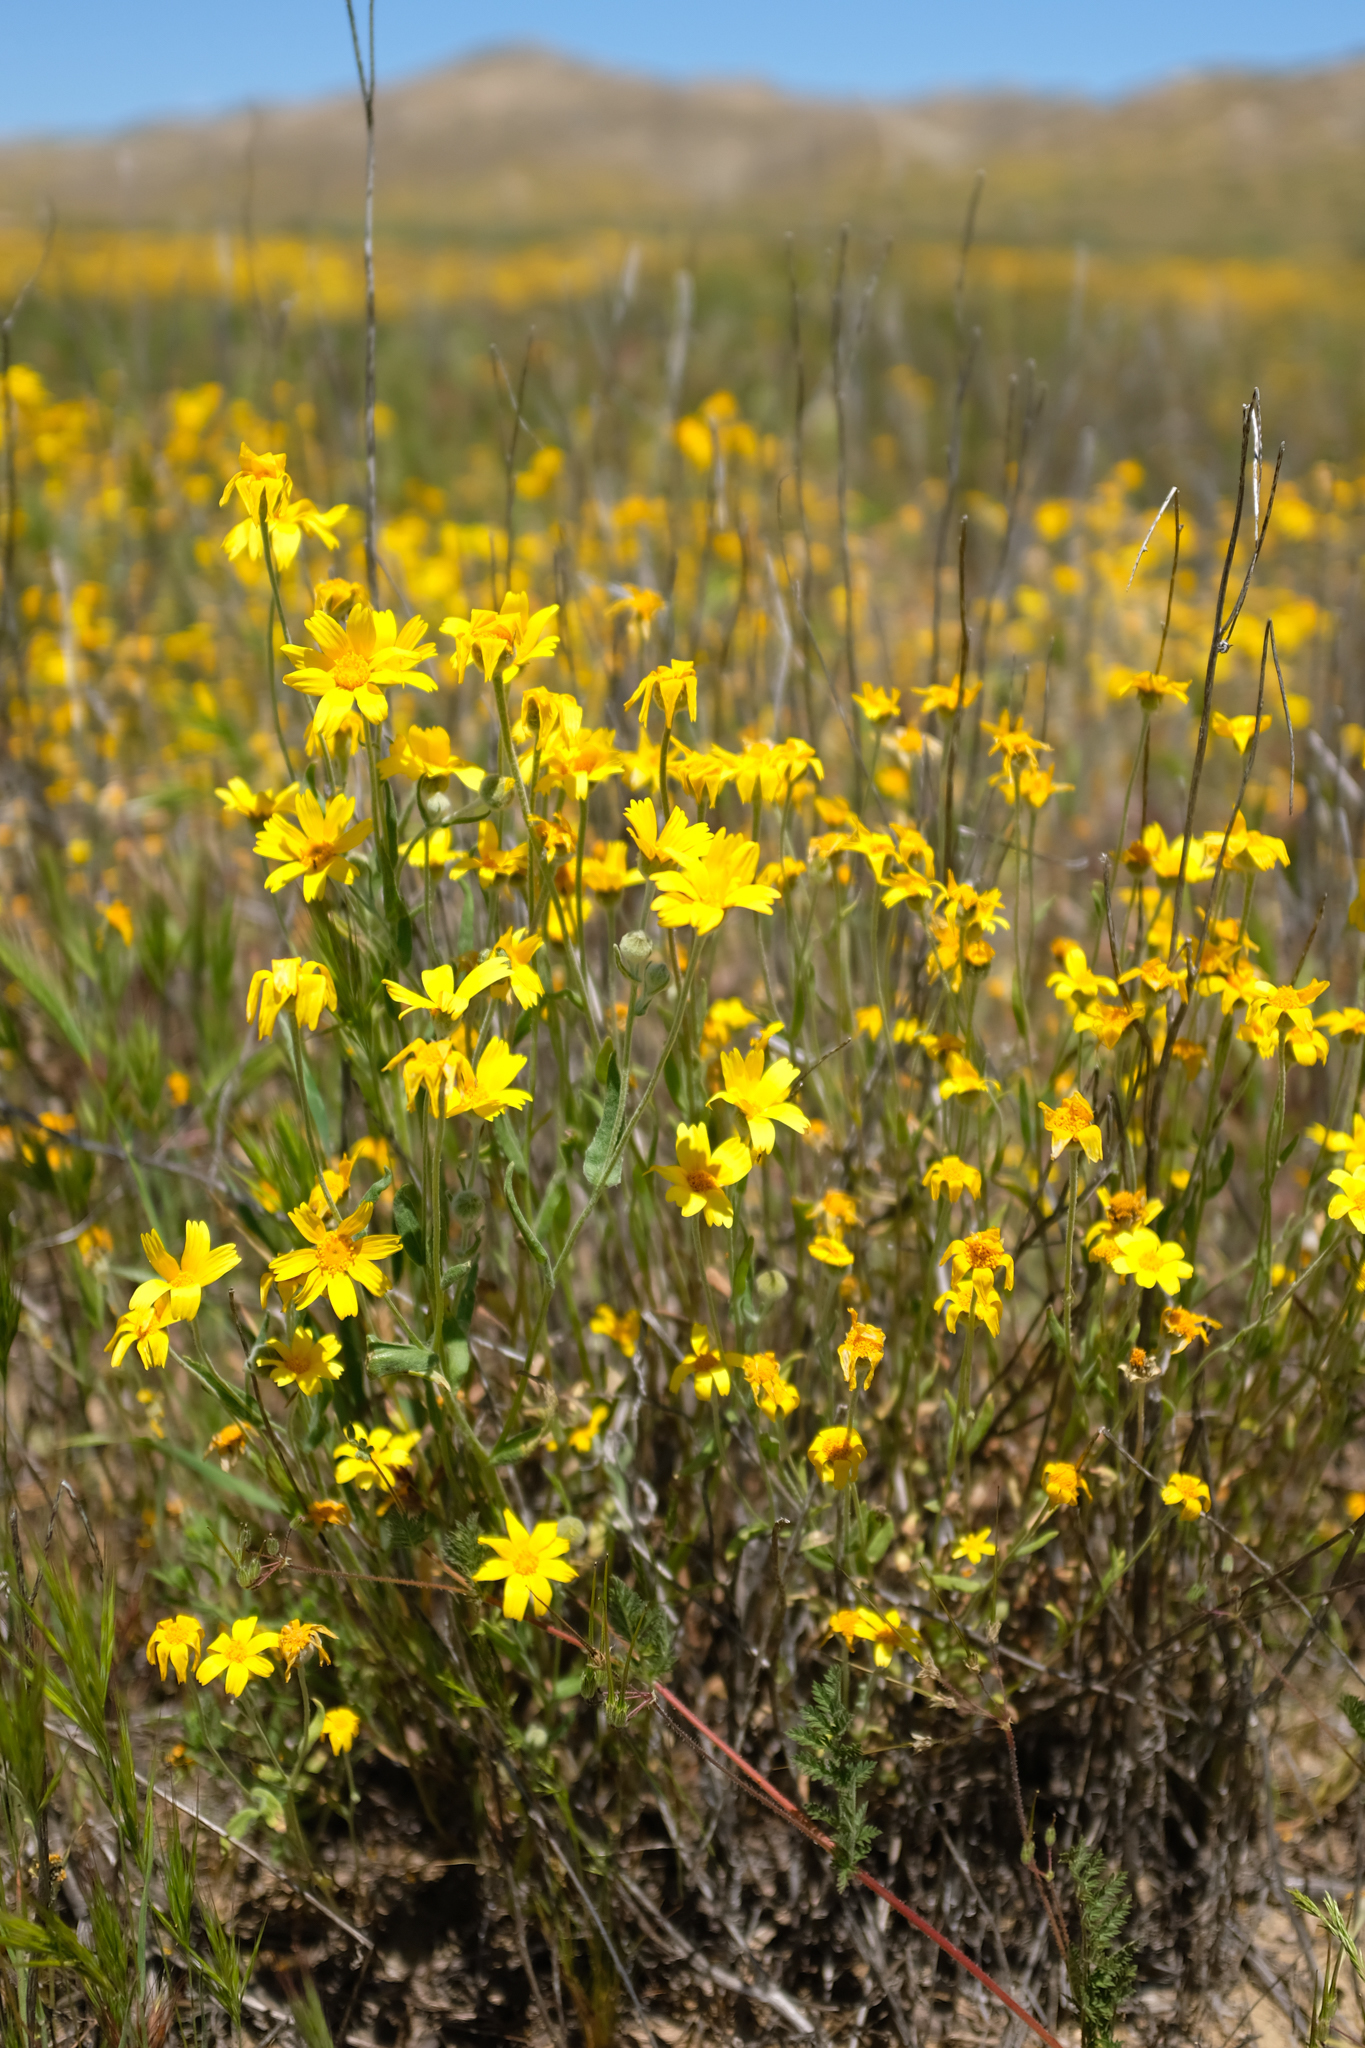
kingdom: Plantae
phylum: Tracheophyta
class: Magnoliopsida
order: Asterales
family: Asteraceae
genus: Monolopia
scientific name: Monolopia lanceolata
